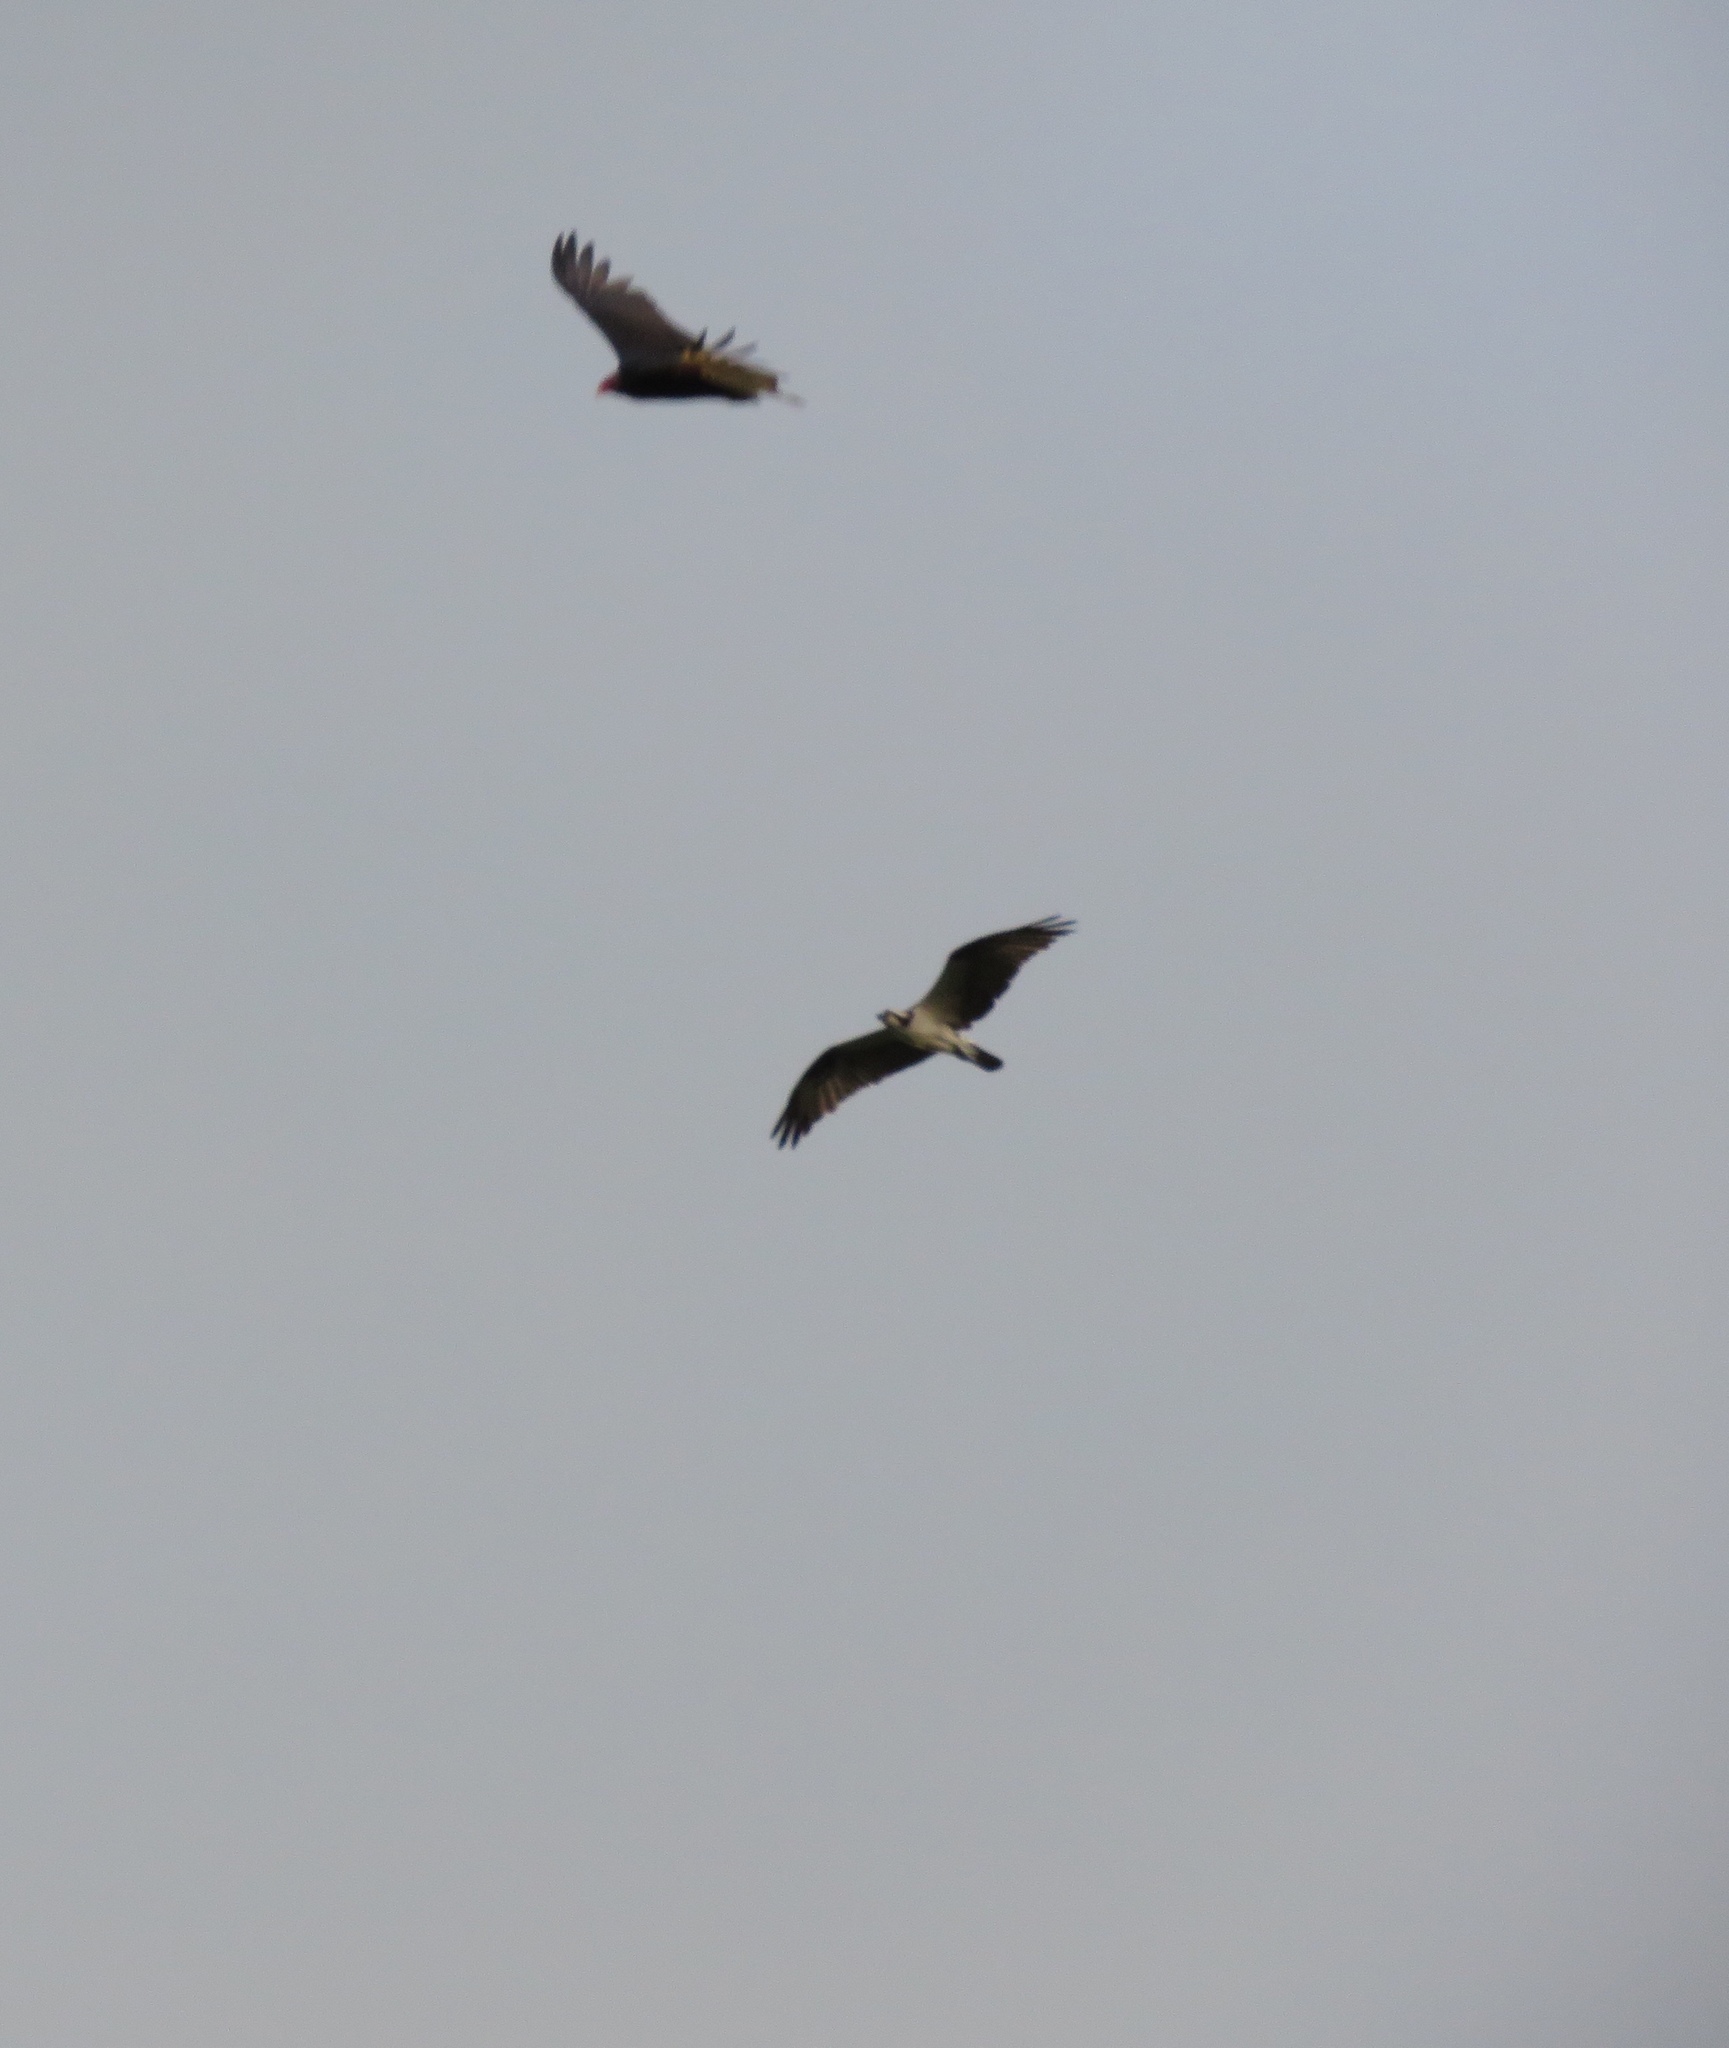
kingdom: Animalia
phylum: Chordata
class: Aves
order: Accipitriformes
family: Pandionidae
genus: Pandion
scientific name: Pandion haliaetus
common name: Osprey
